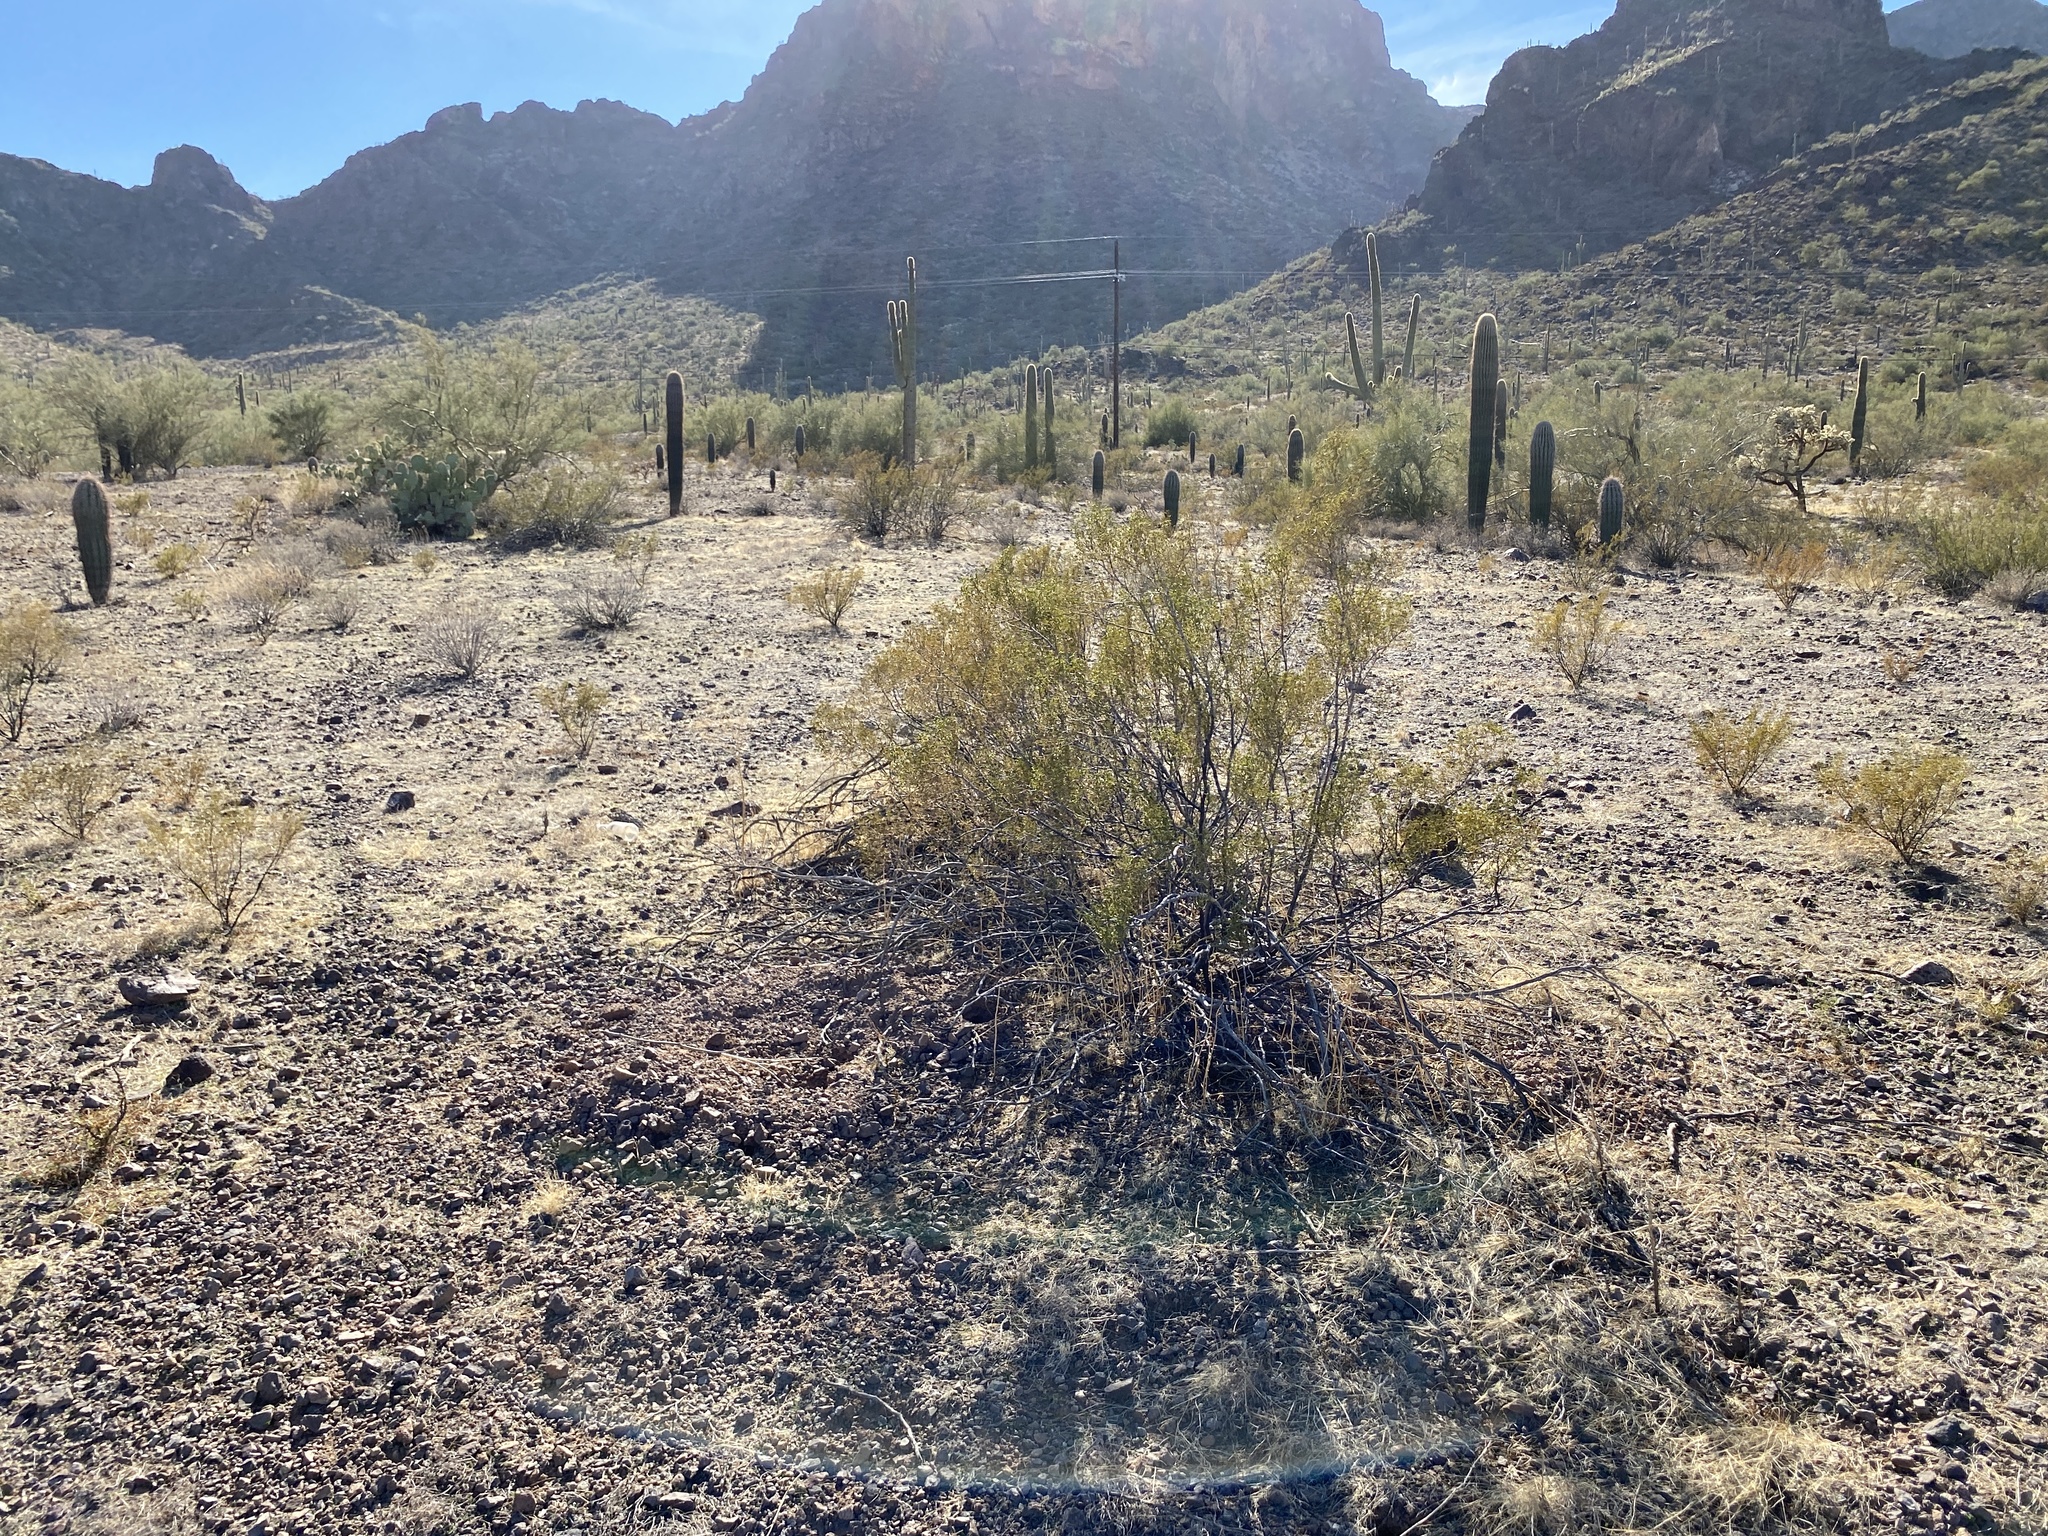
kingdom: Plantae
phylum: Tracheophyta
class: Magnoliopsida
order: Zygophyllales
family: Zygophyllaceae
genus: Larrea
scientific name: Larrea tridentata
